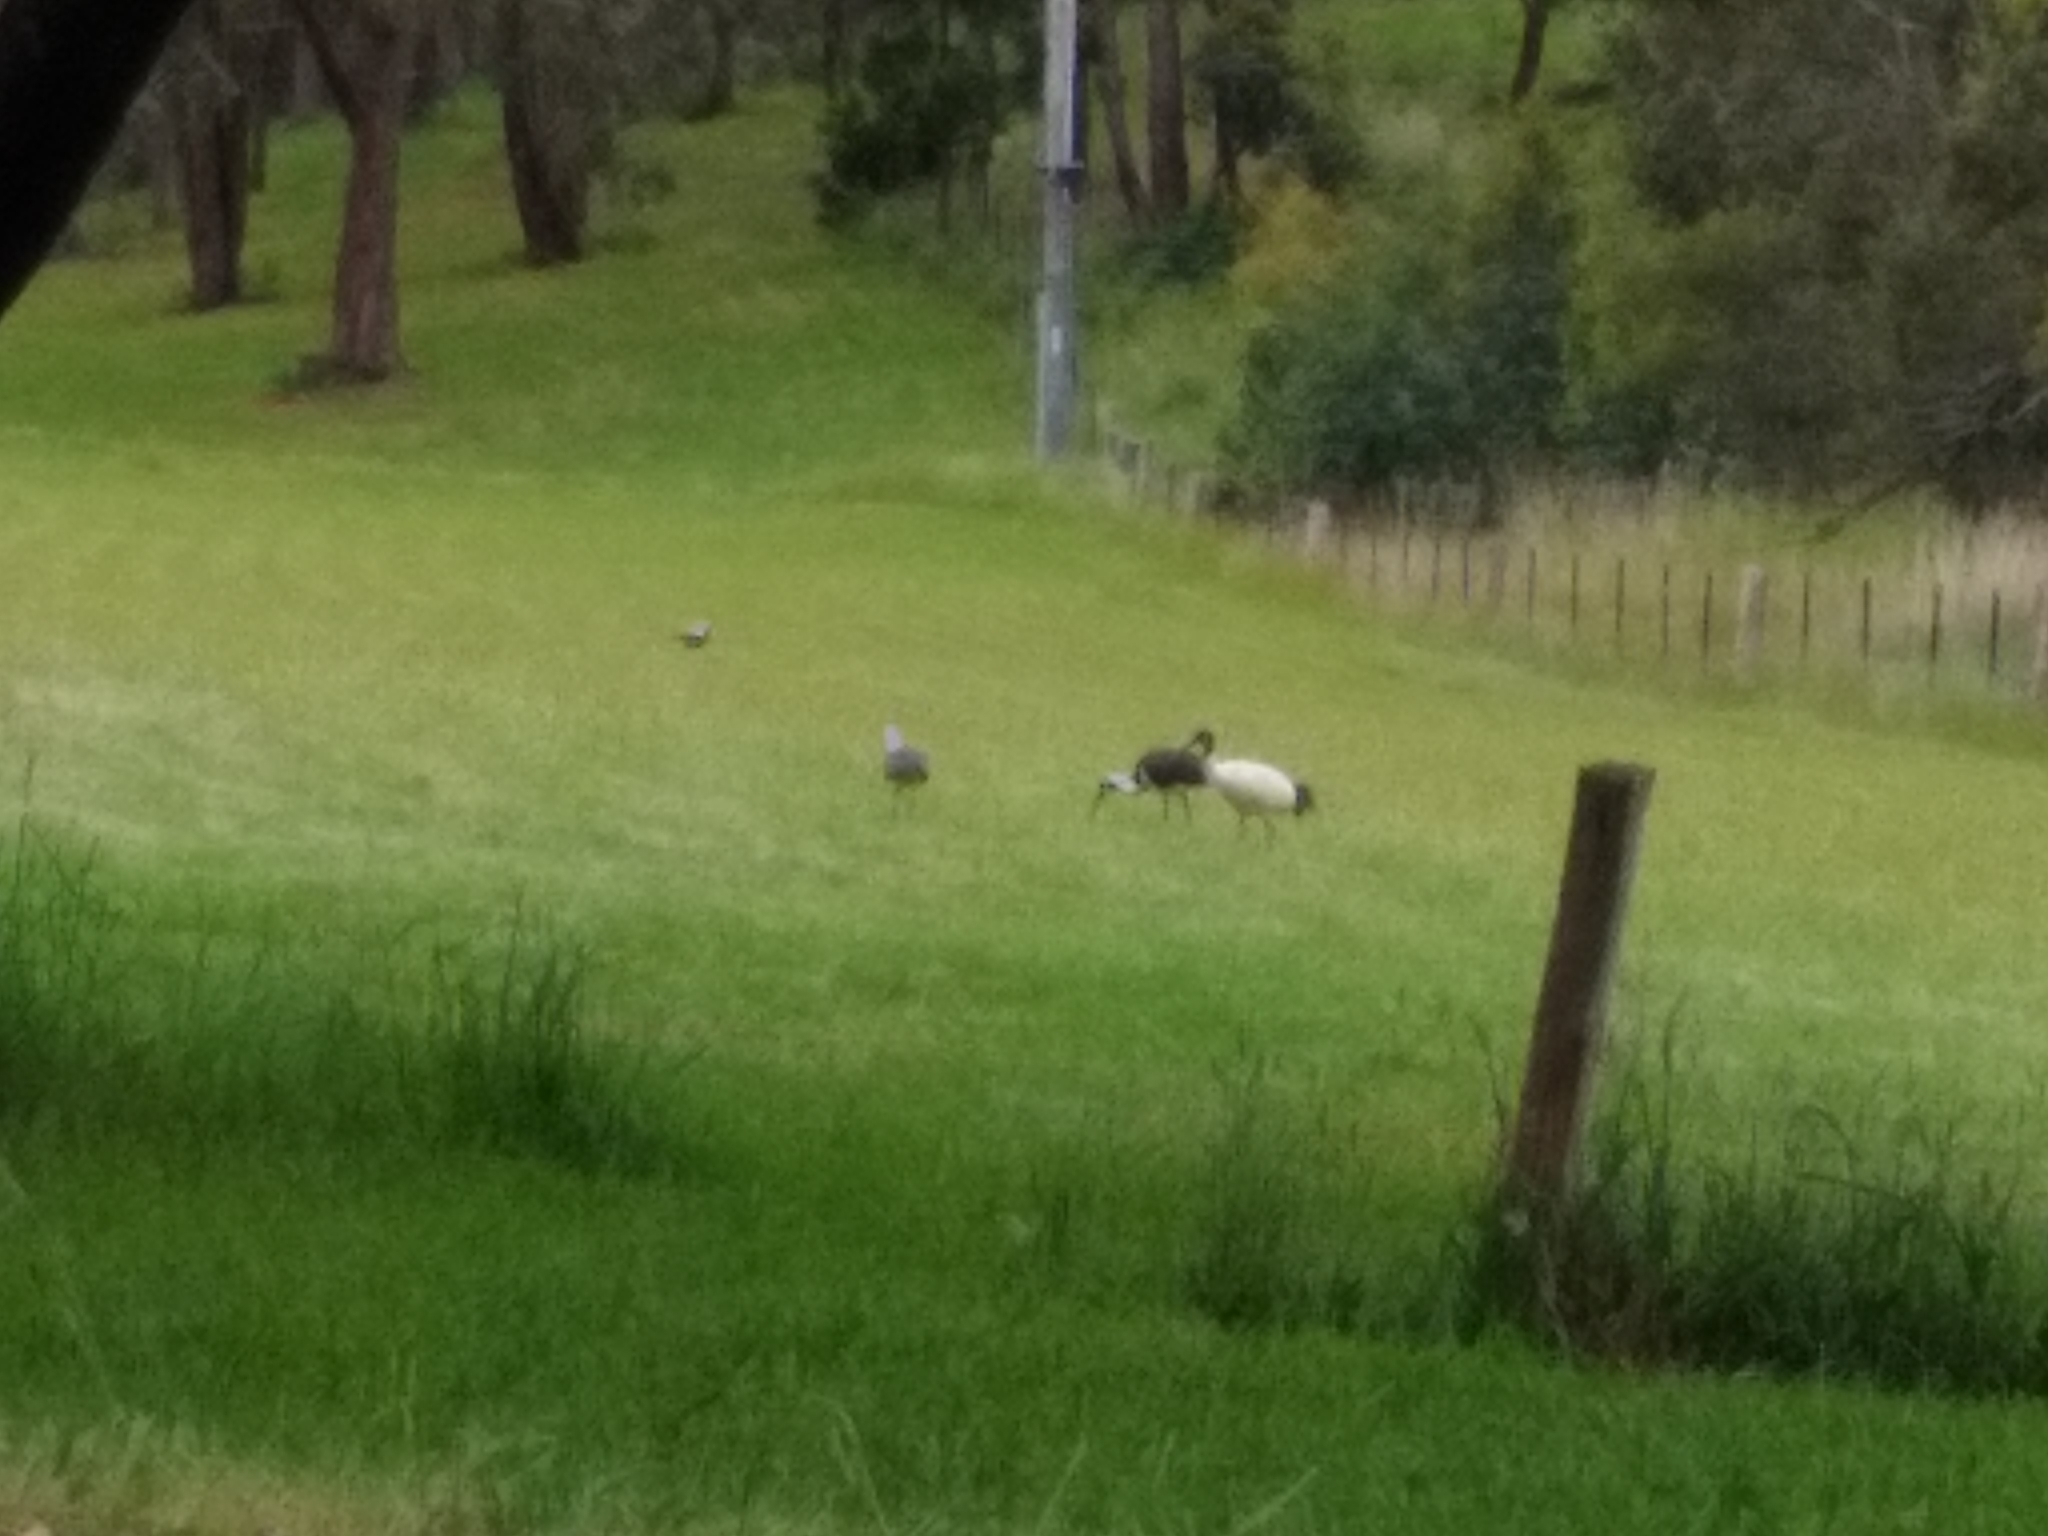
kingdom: Animalia
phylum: Chordata
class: Aves
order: Pelecaniformes
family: Threskiornithidae
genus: Threskiornis
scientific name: Threskiornis spinicollis
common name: Straw-necked ibis
